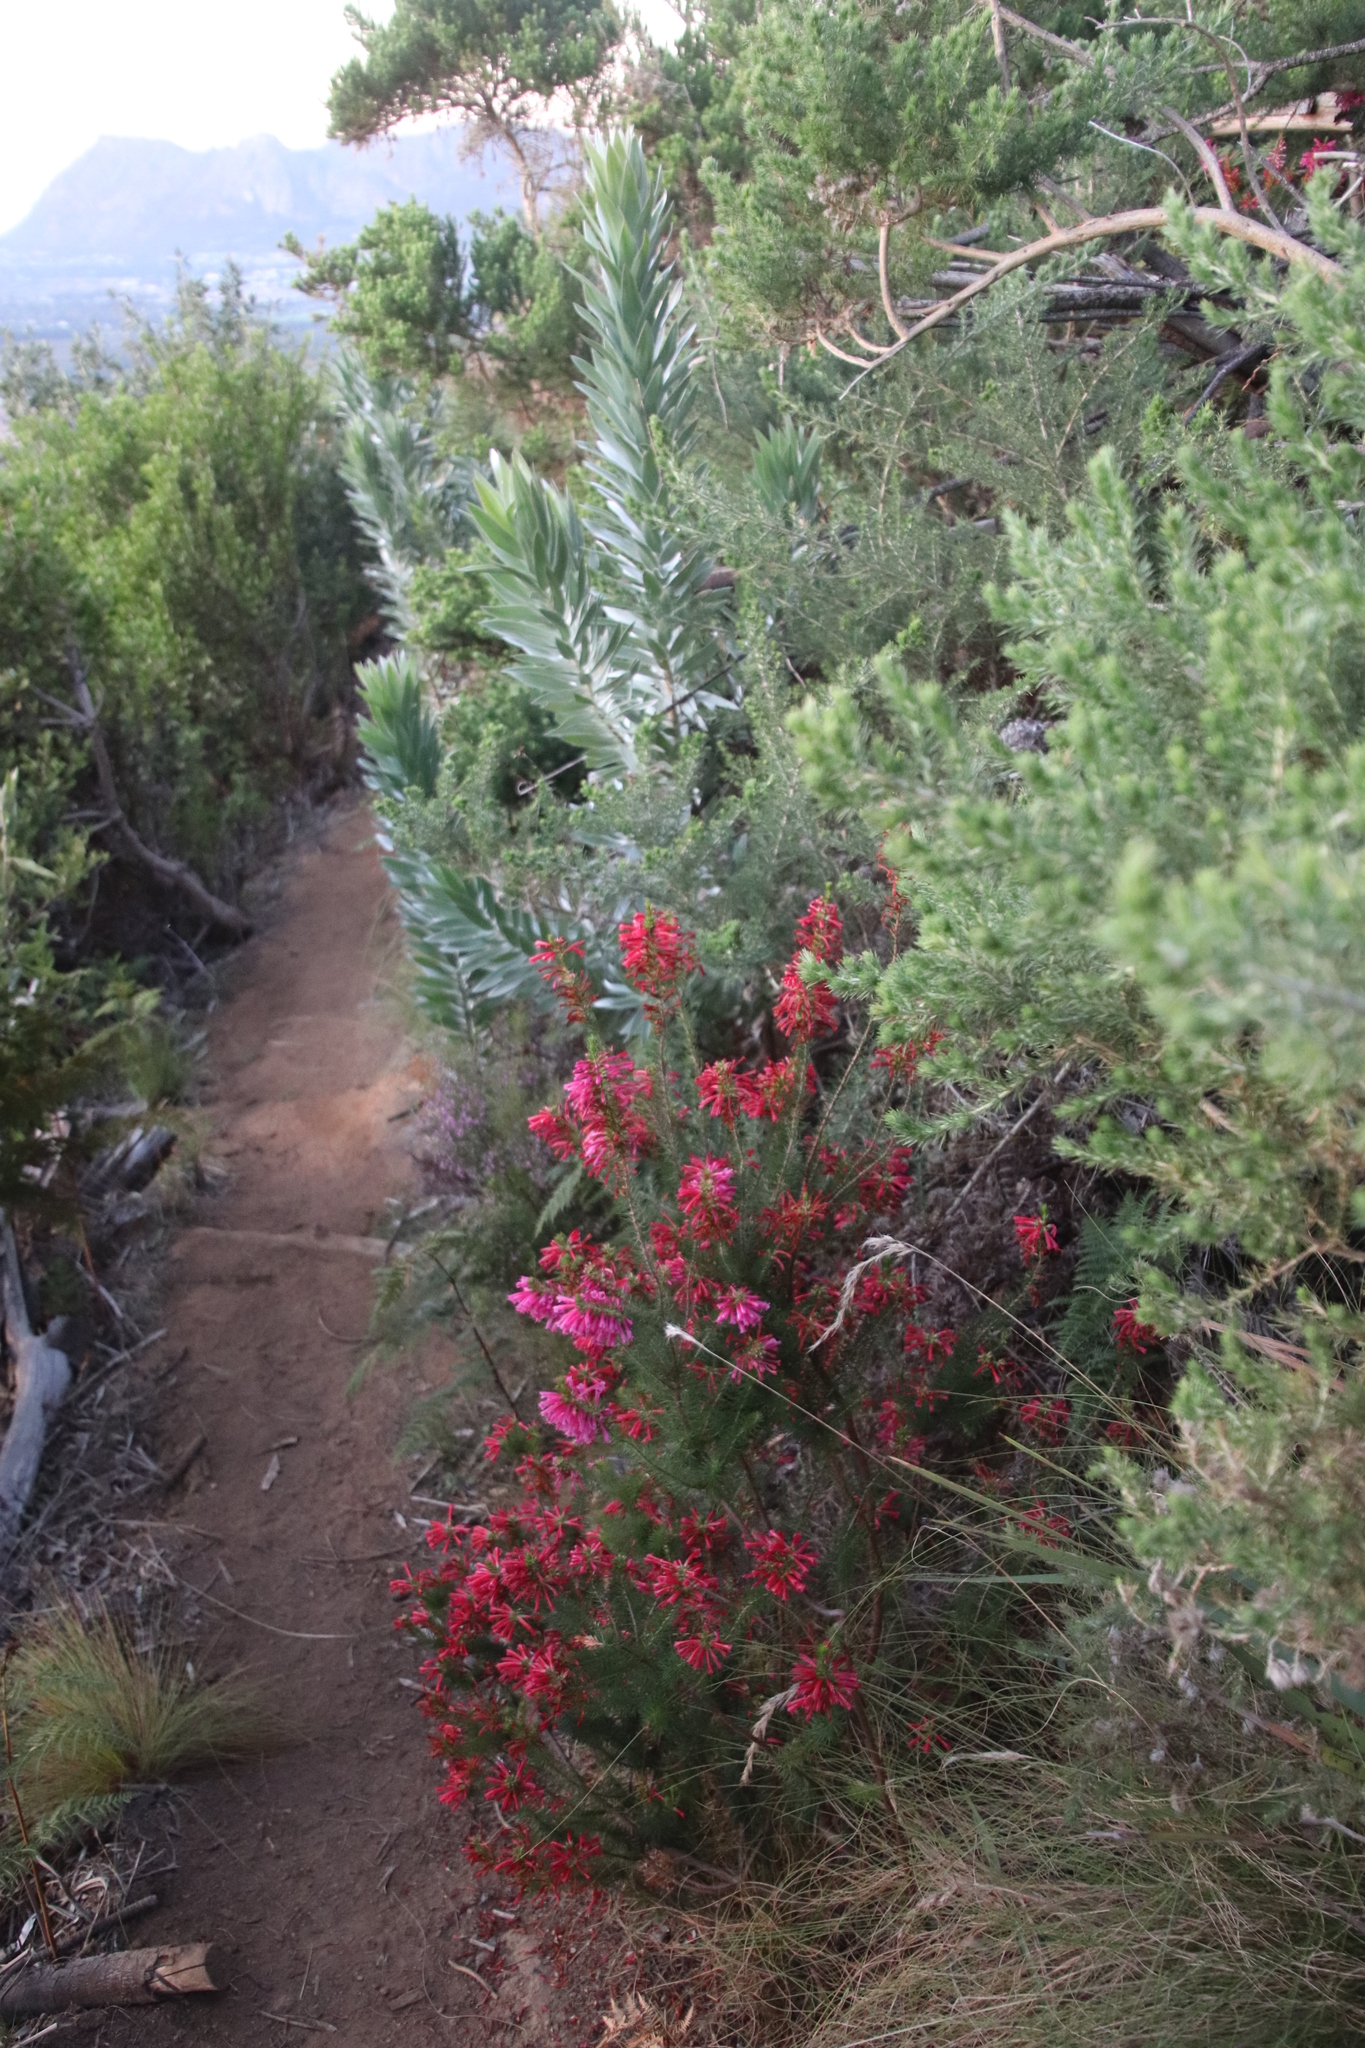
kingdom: Plantae
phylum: Tracheophyta
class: Magnoliopsida
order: Ericales
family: Ericaceae
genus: Erica
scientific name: Erica abietina
